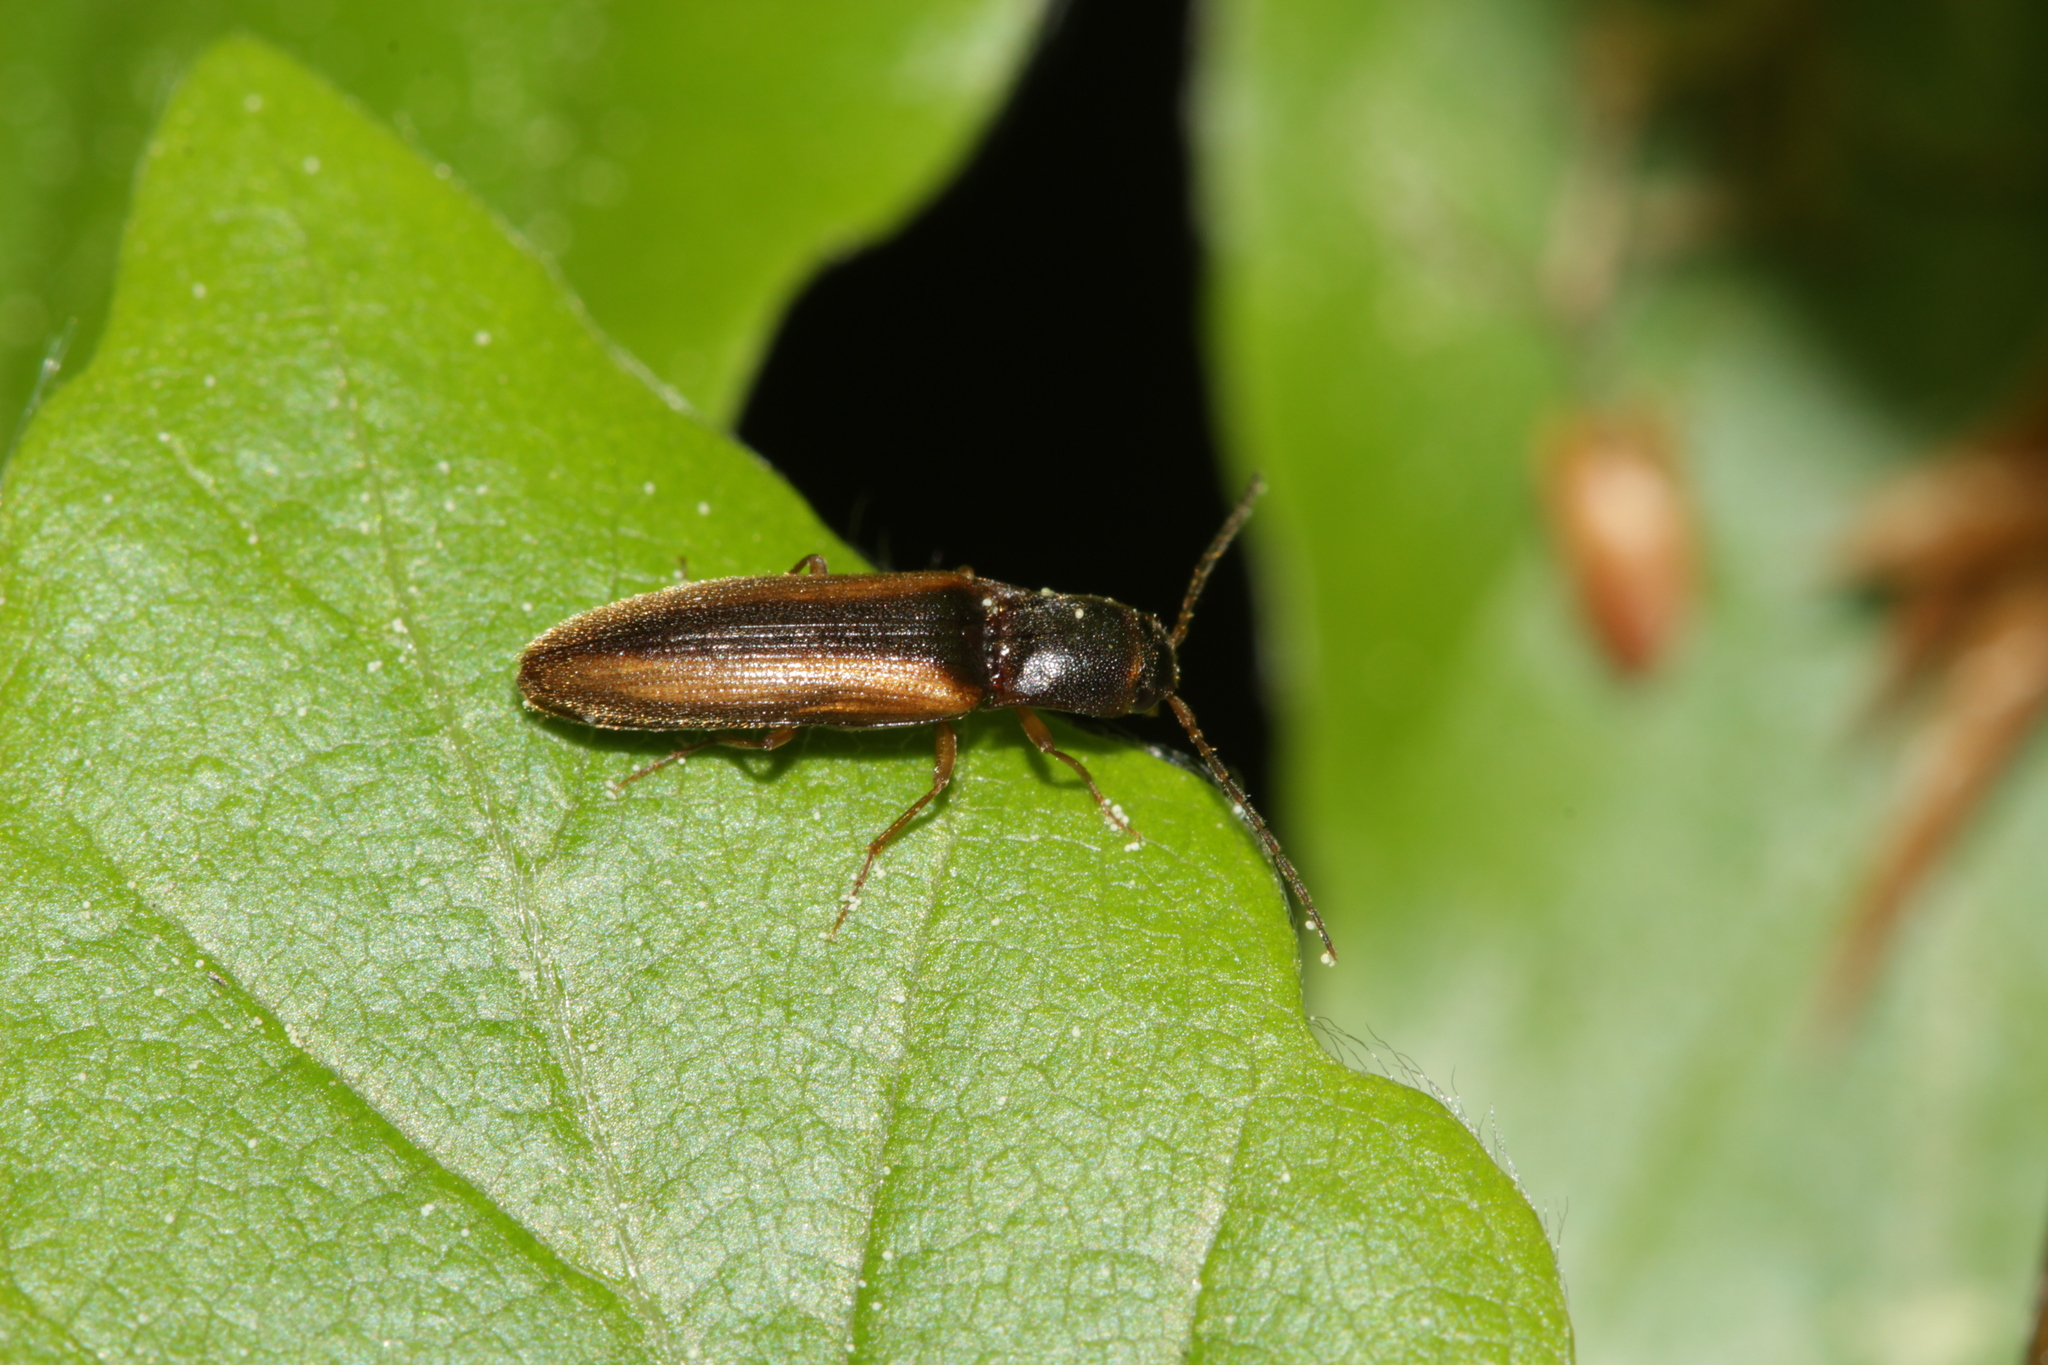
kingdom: Animalia
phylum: Arthropoda
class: Insecta
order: Coleoptera
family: Elateridae
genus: Dalopius
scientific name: Dalopius marginatus
